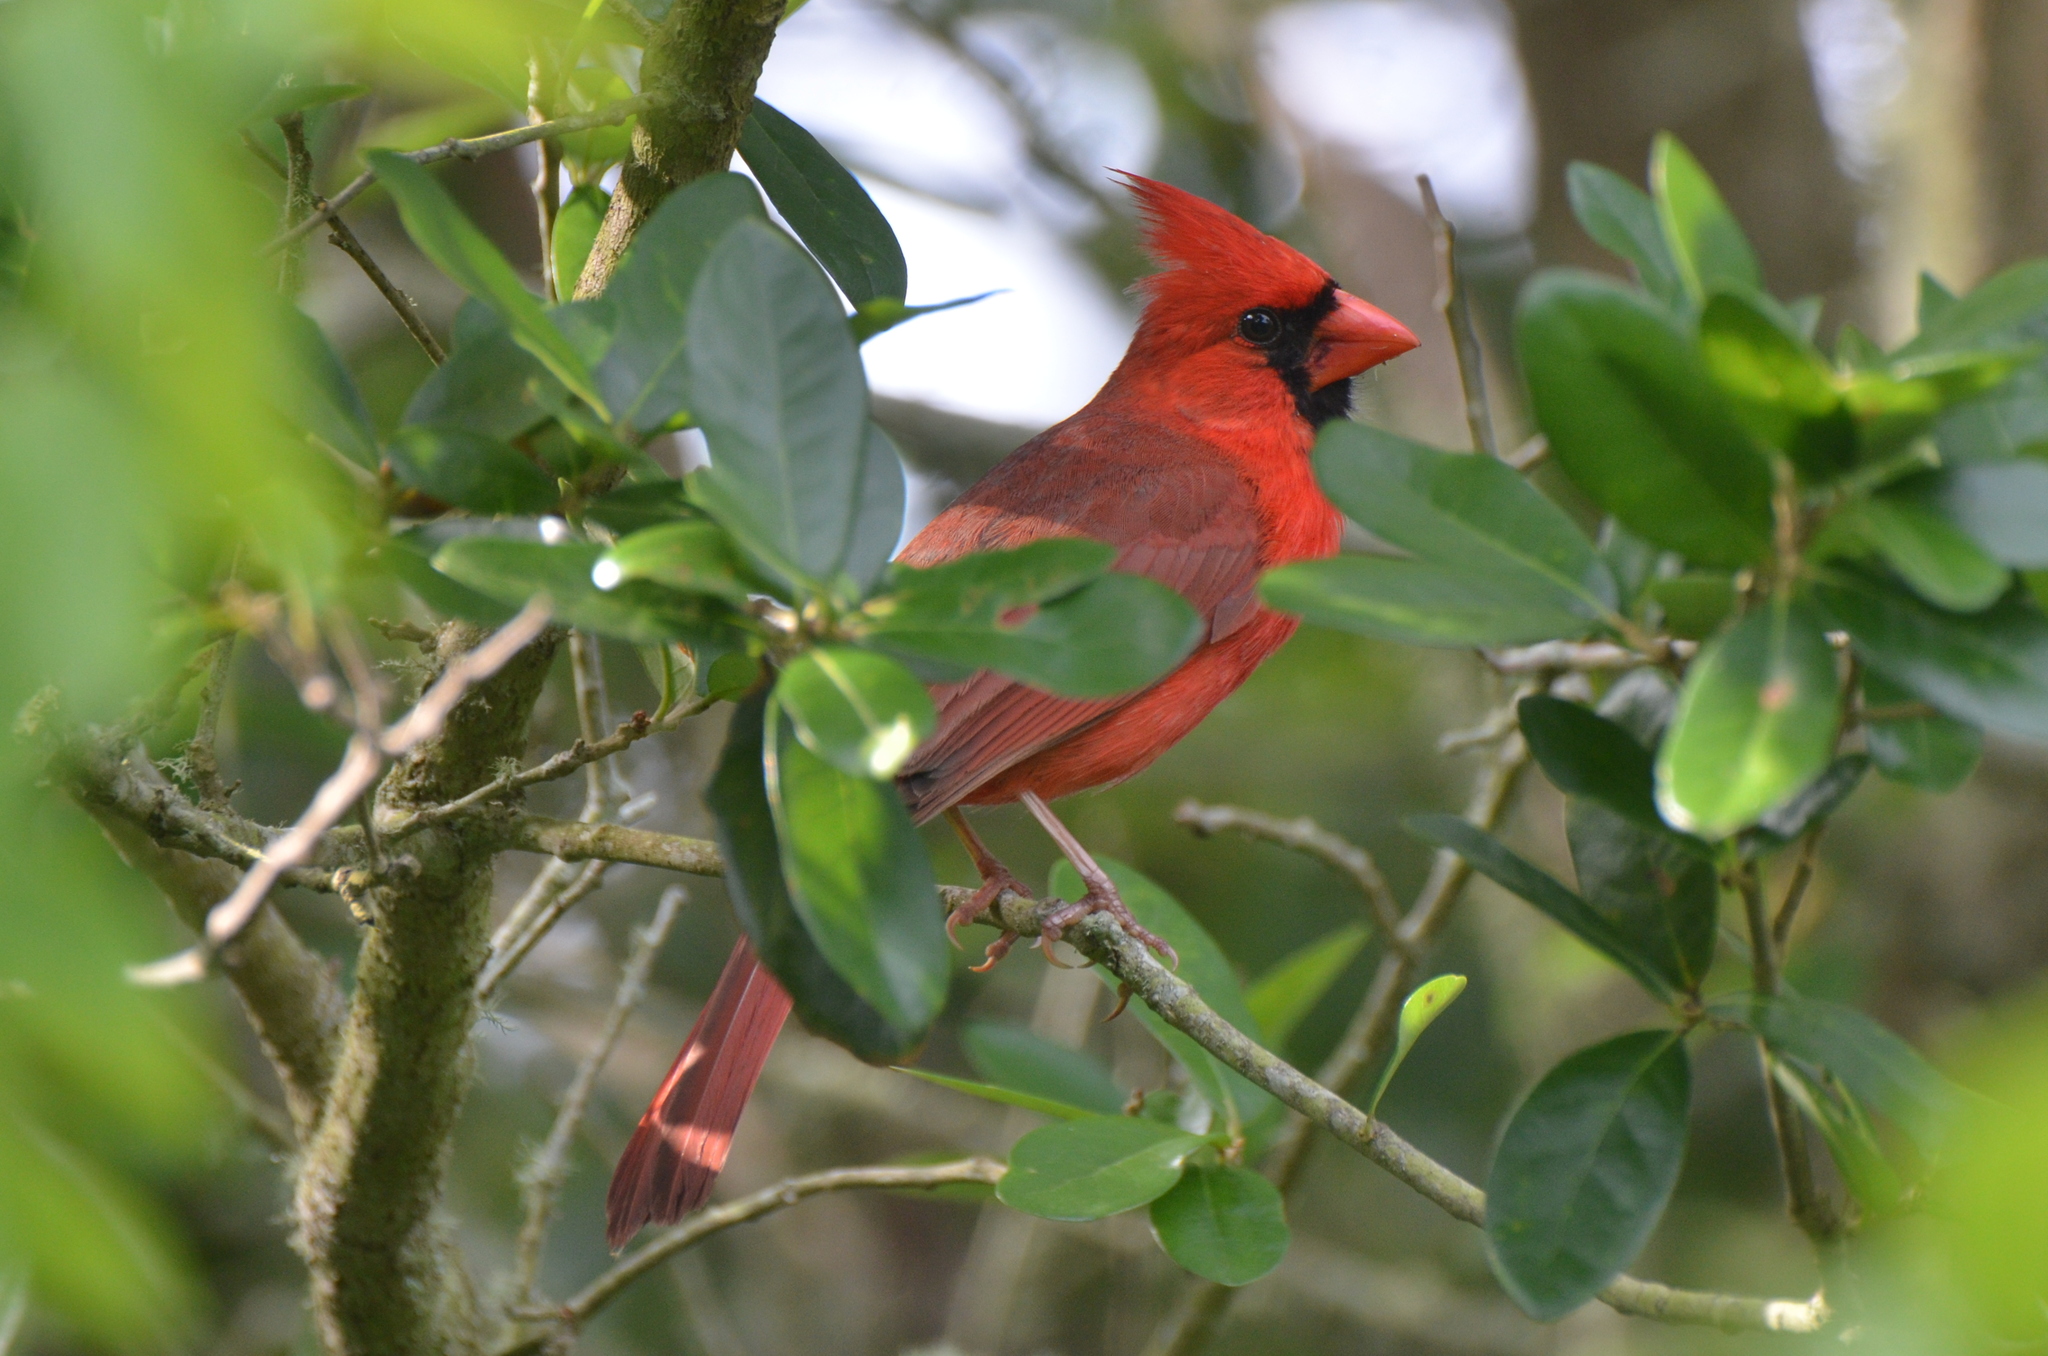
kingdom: Animalia
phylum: Chordata
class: Aves
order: Passeriformes
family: Cardinalidae
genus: Cardinalis
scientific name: Cardinalis cardinalis
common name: Northern cardinal
